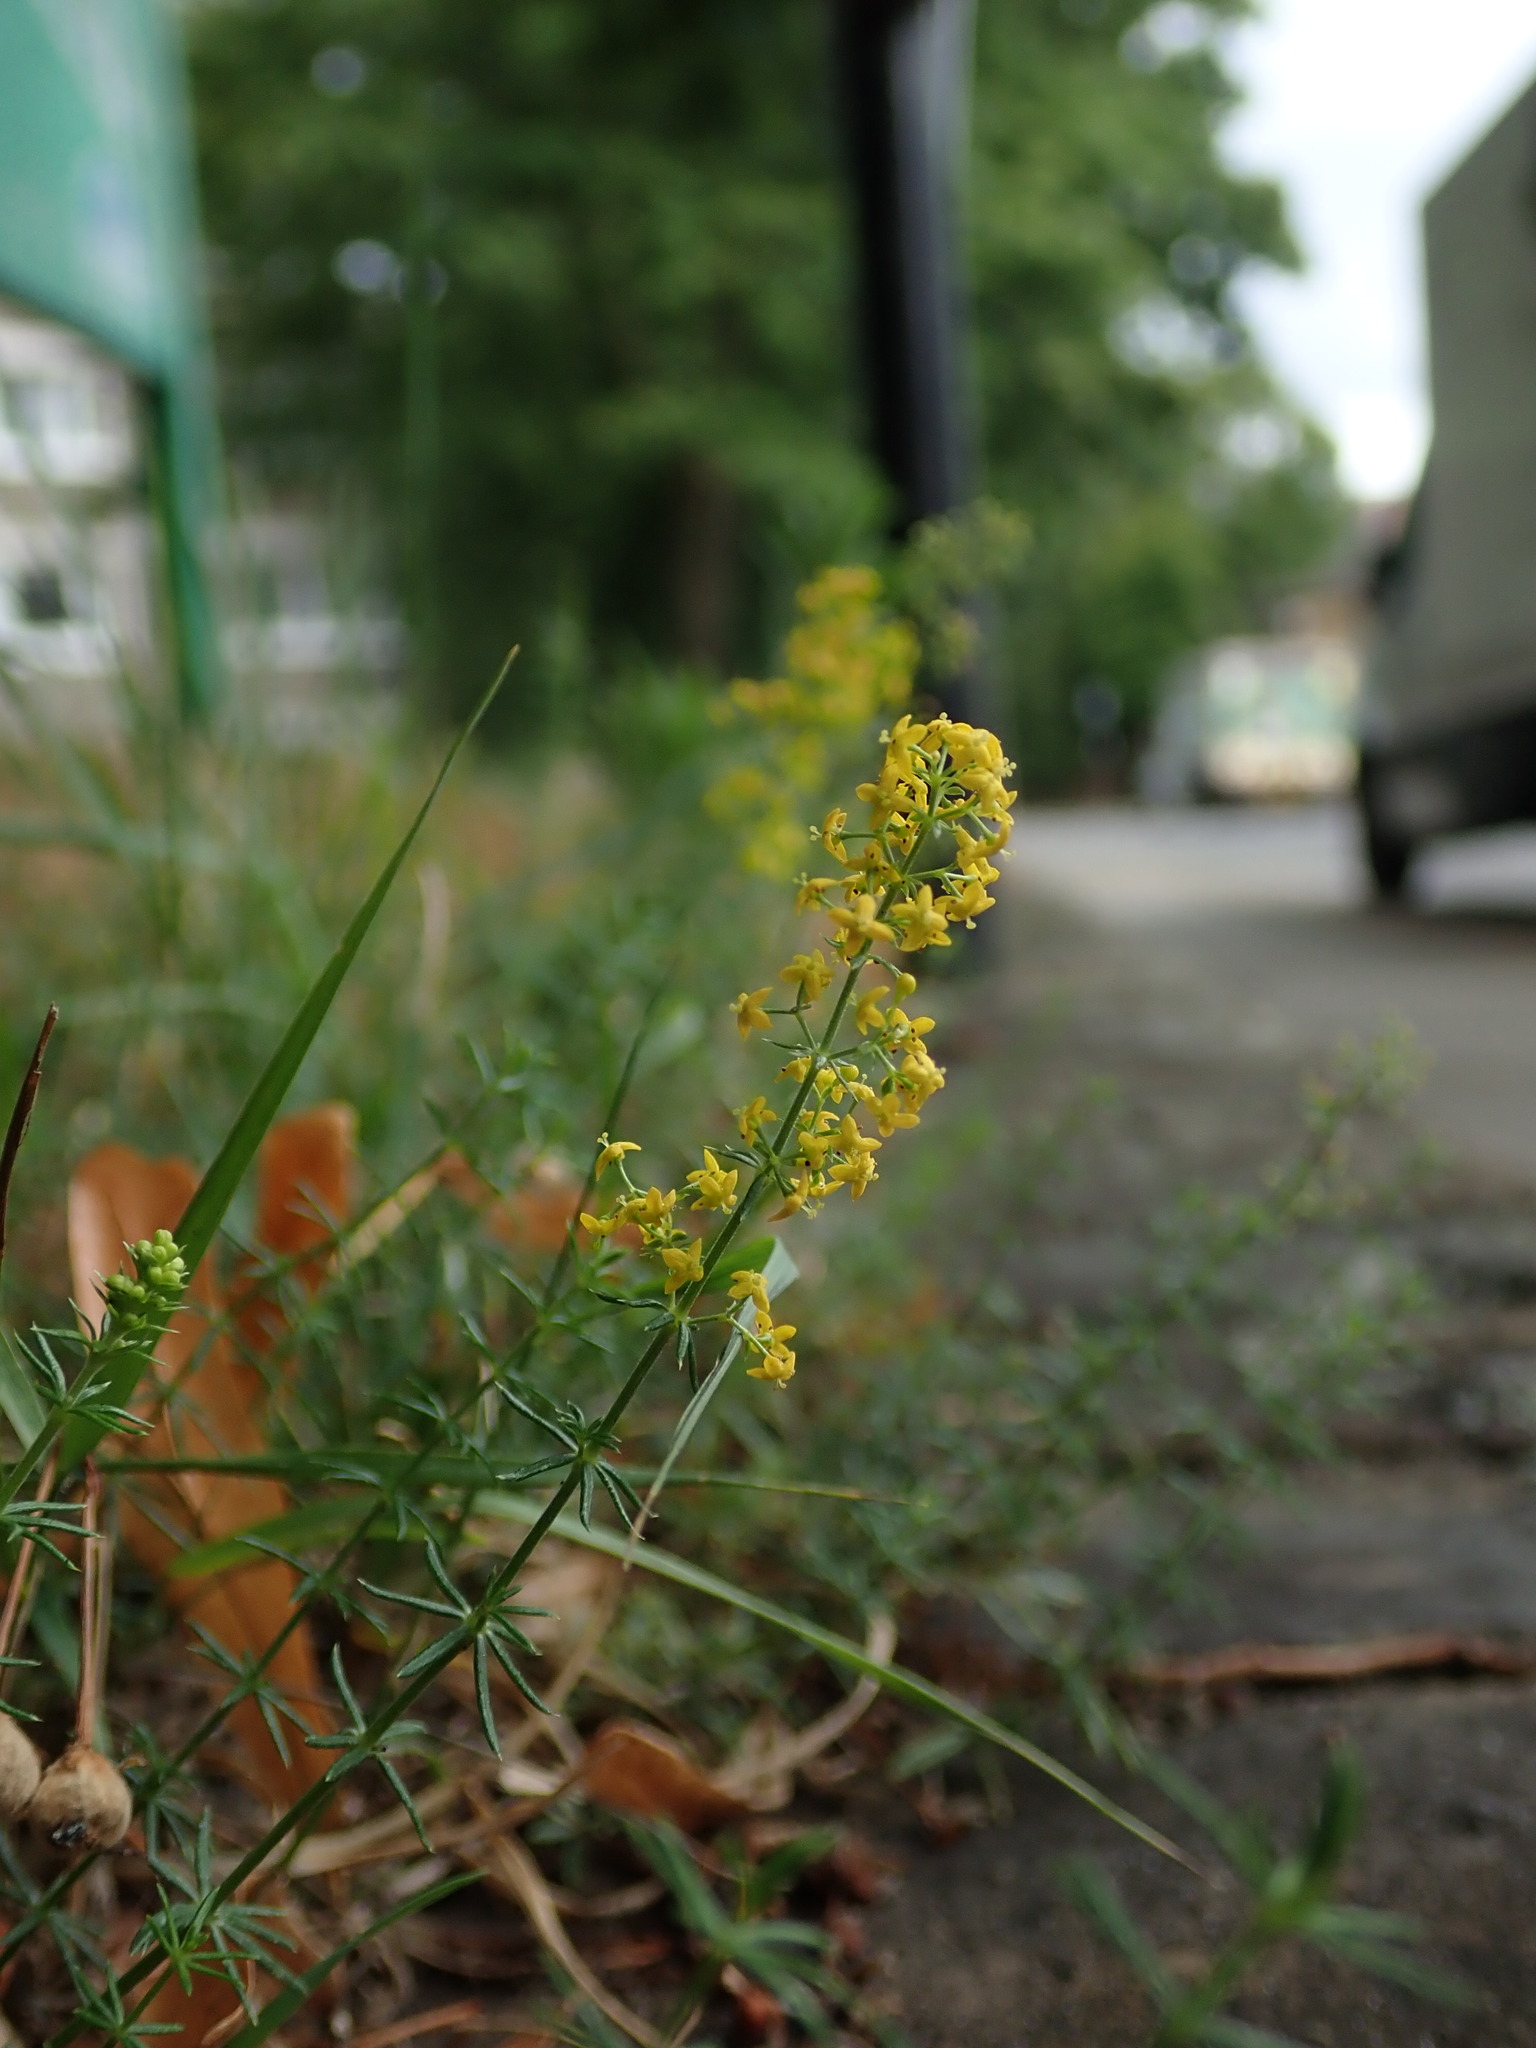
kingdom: Plantae
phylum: Tracheophyta
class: Magnoliopsida
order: Gentianales
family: Rubiaceae
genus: Galium
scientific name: Galium verum
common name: Lady's bedstraw
